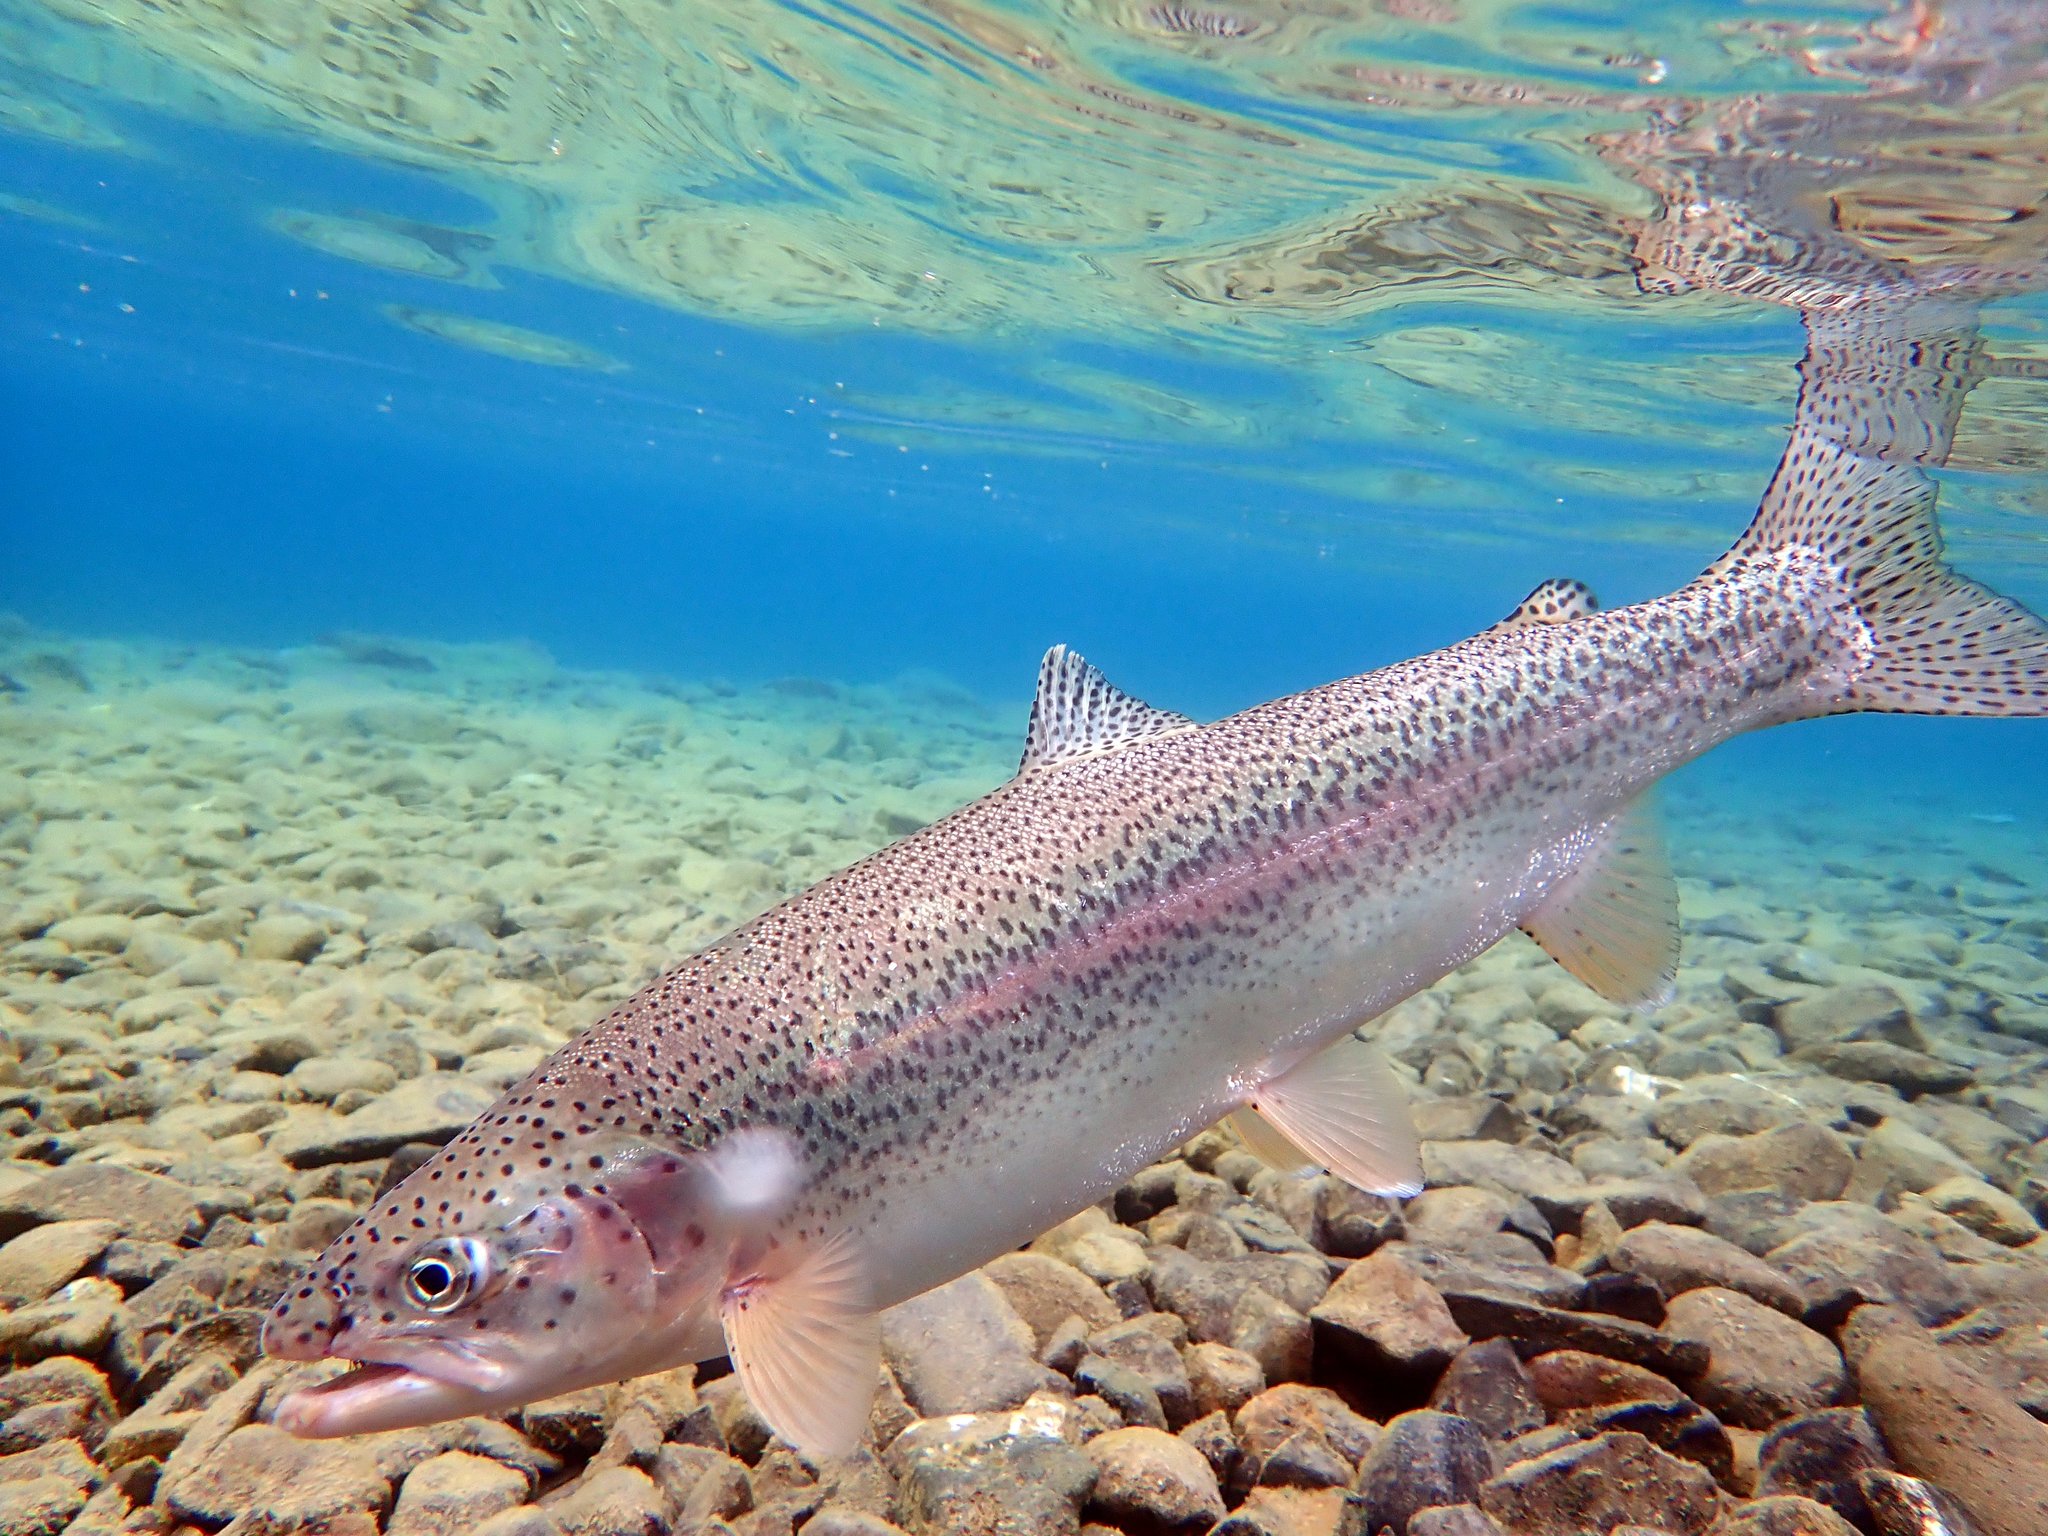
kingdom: Animalia
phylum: Chordata
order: Salmoniformes
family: Salmonidae
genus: Oncorhynchus
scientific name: Oncorhynchus mykiss
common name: Rainbow trout
